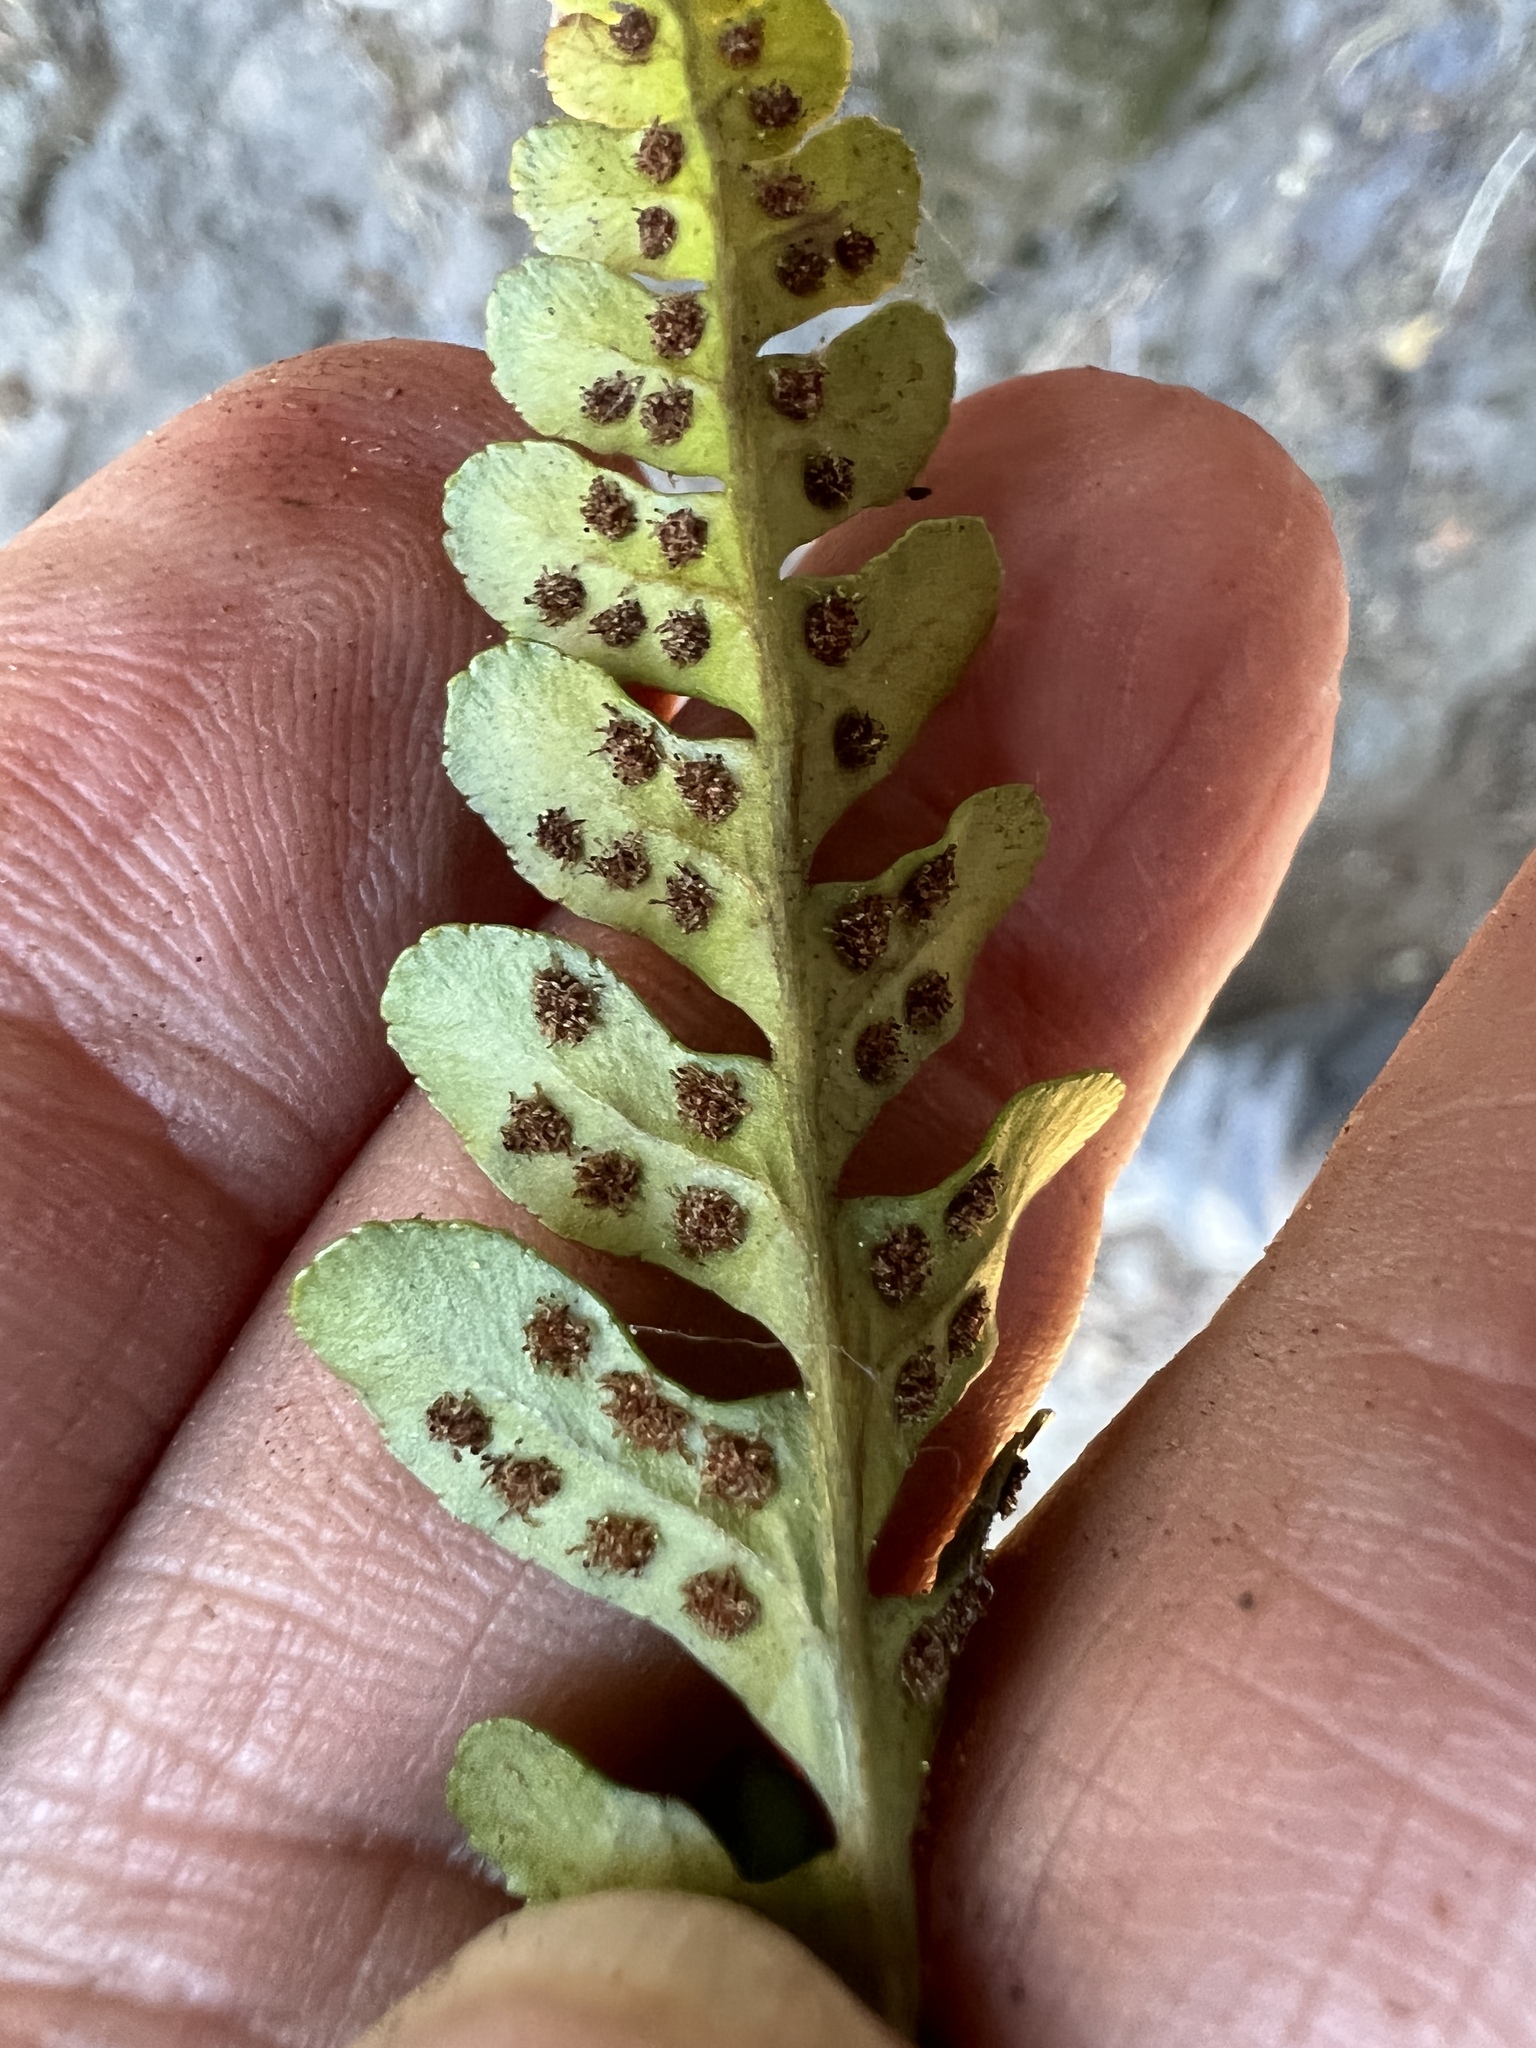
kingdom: Plantae
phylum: Tracheophyta
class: Polypodiopsida
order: Polypodiales
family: Polypodiaceae
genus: Polypodium
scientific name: Polypodium amorphum
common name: Pacific polypody
